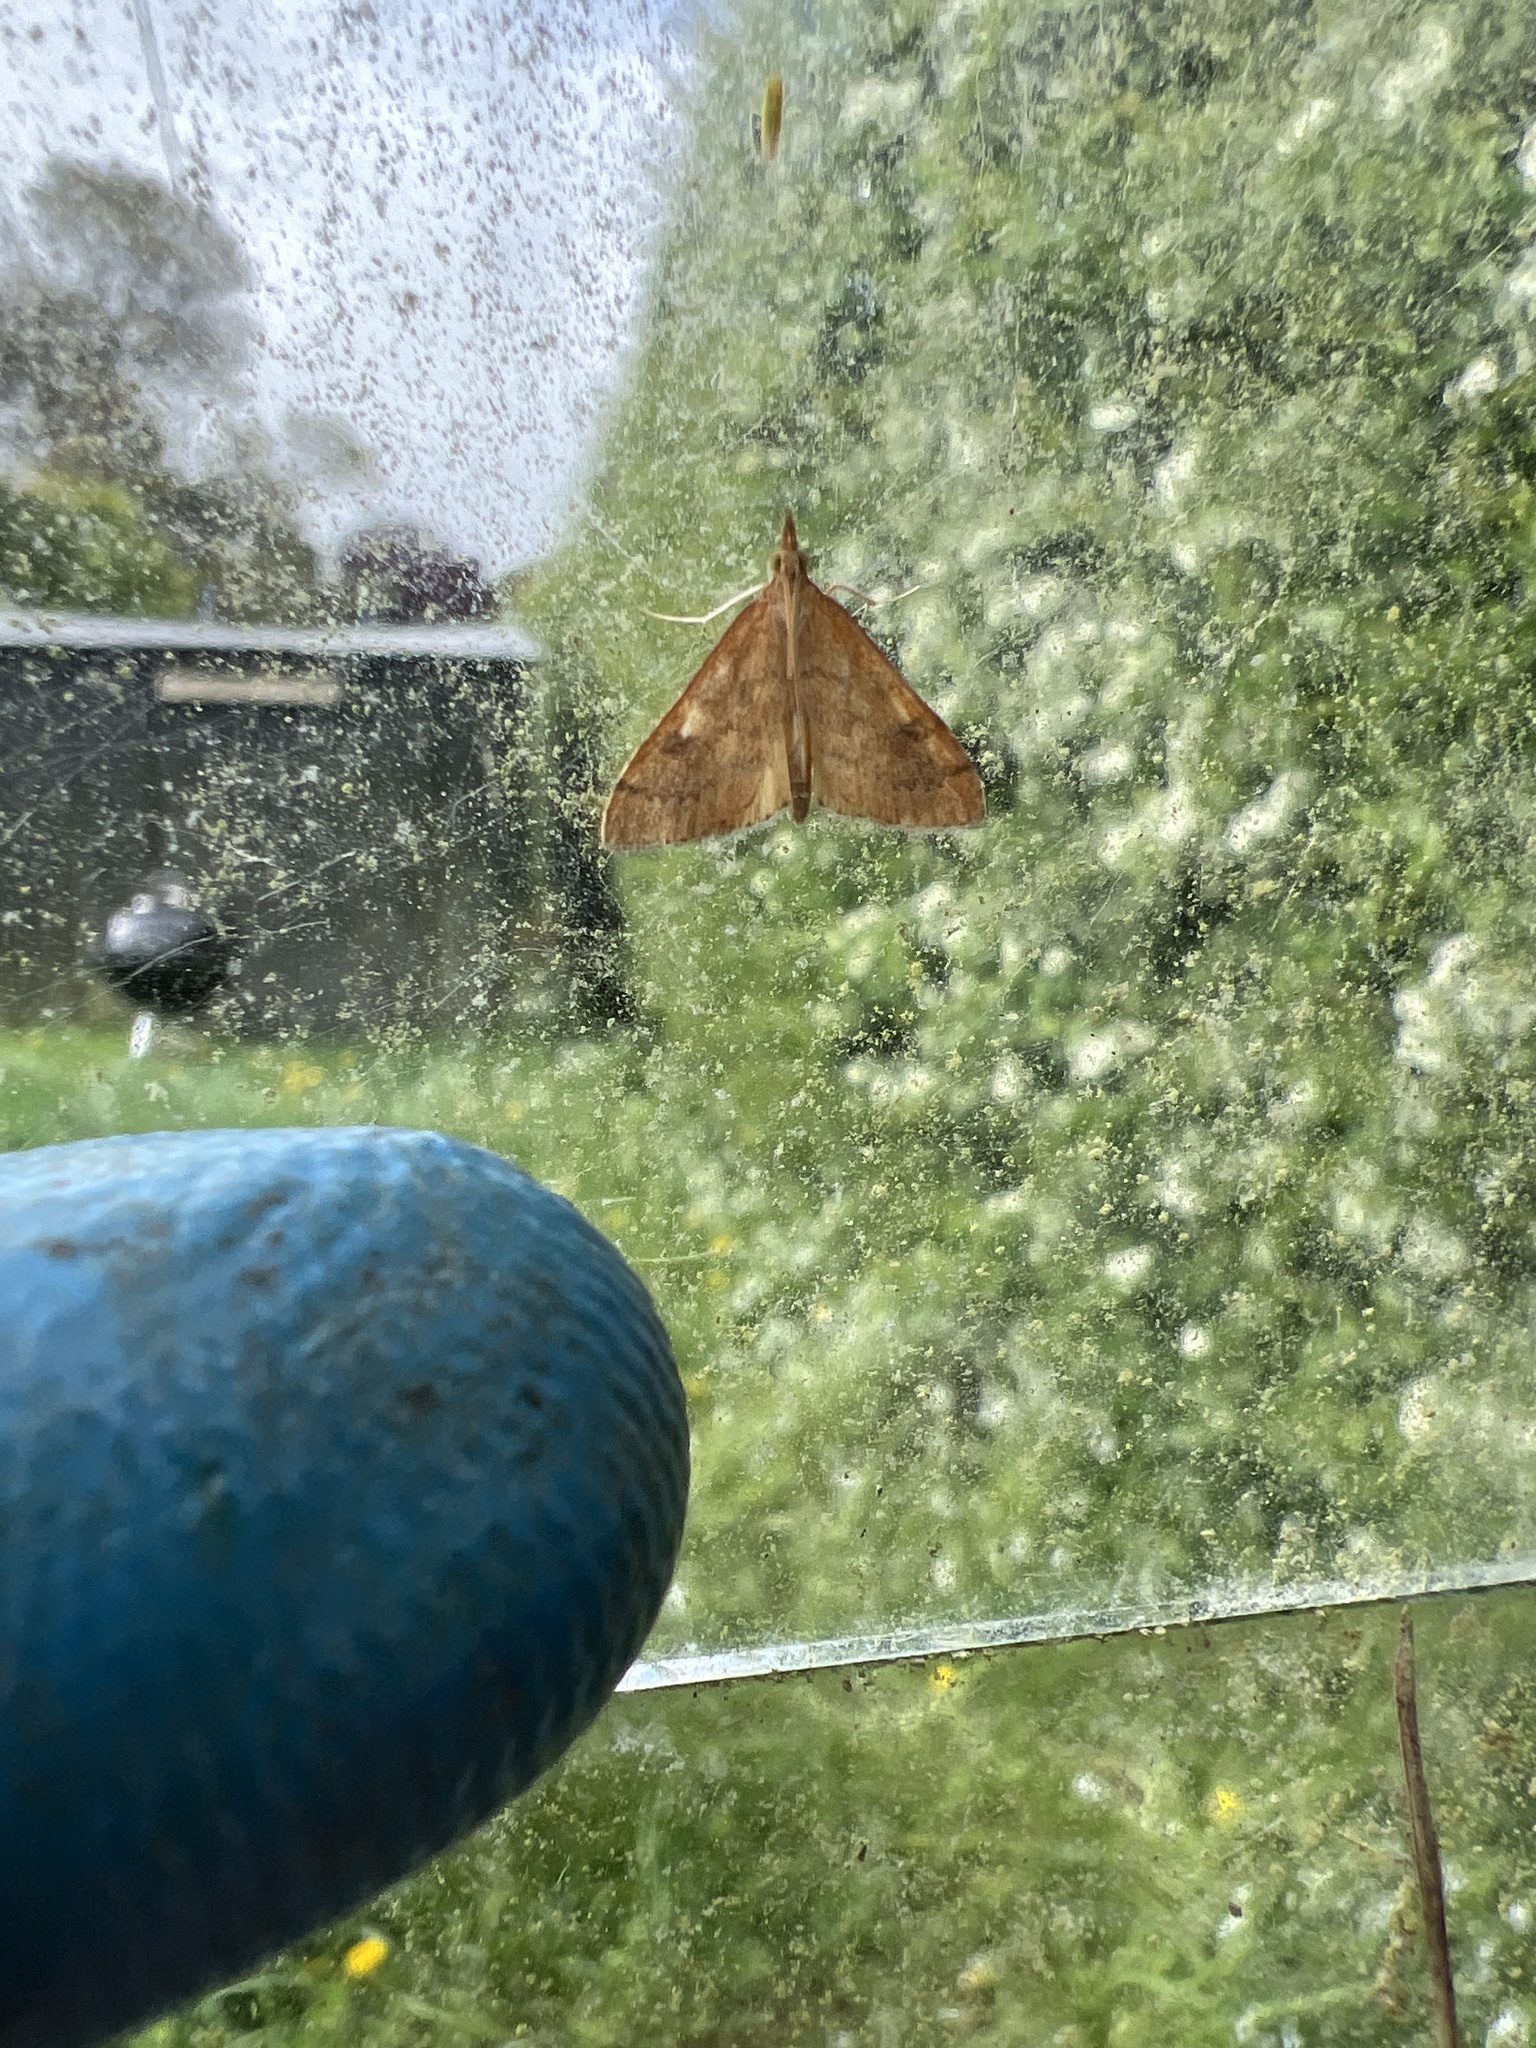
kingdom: Animalia
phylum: Arthropoda
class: Insecta
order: Lepidoptera
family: Crambidae
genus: Udea
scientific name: Udea Mnesictena flavidalis
